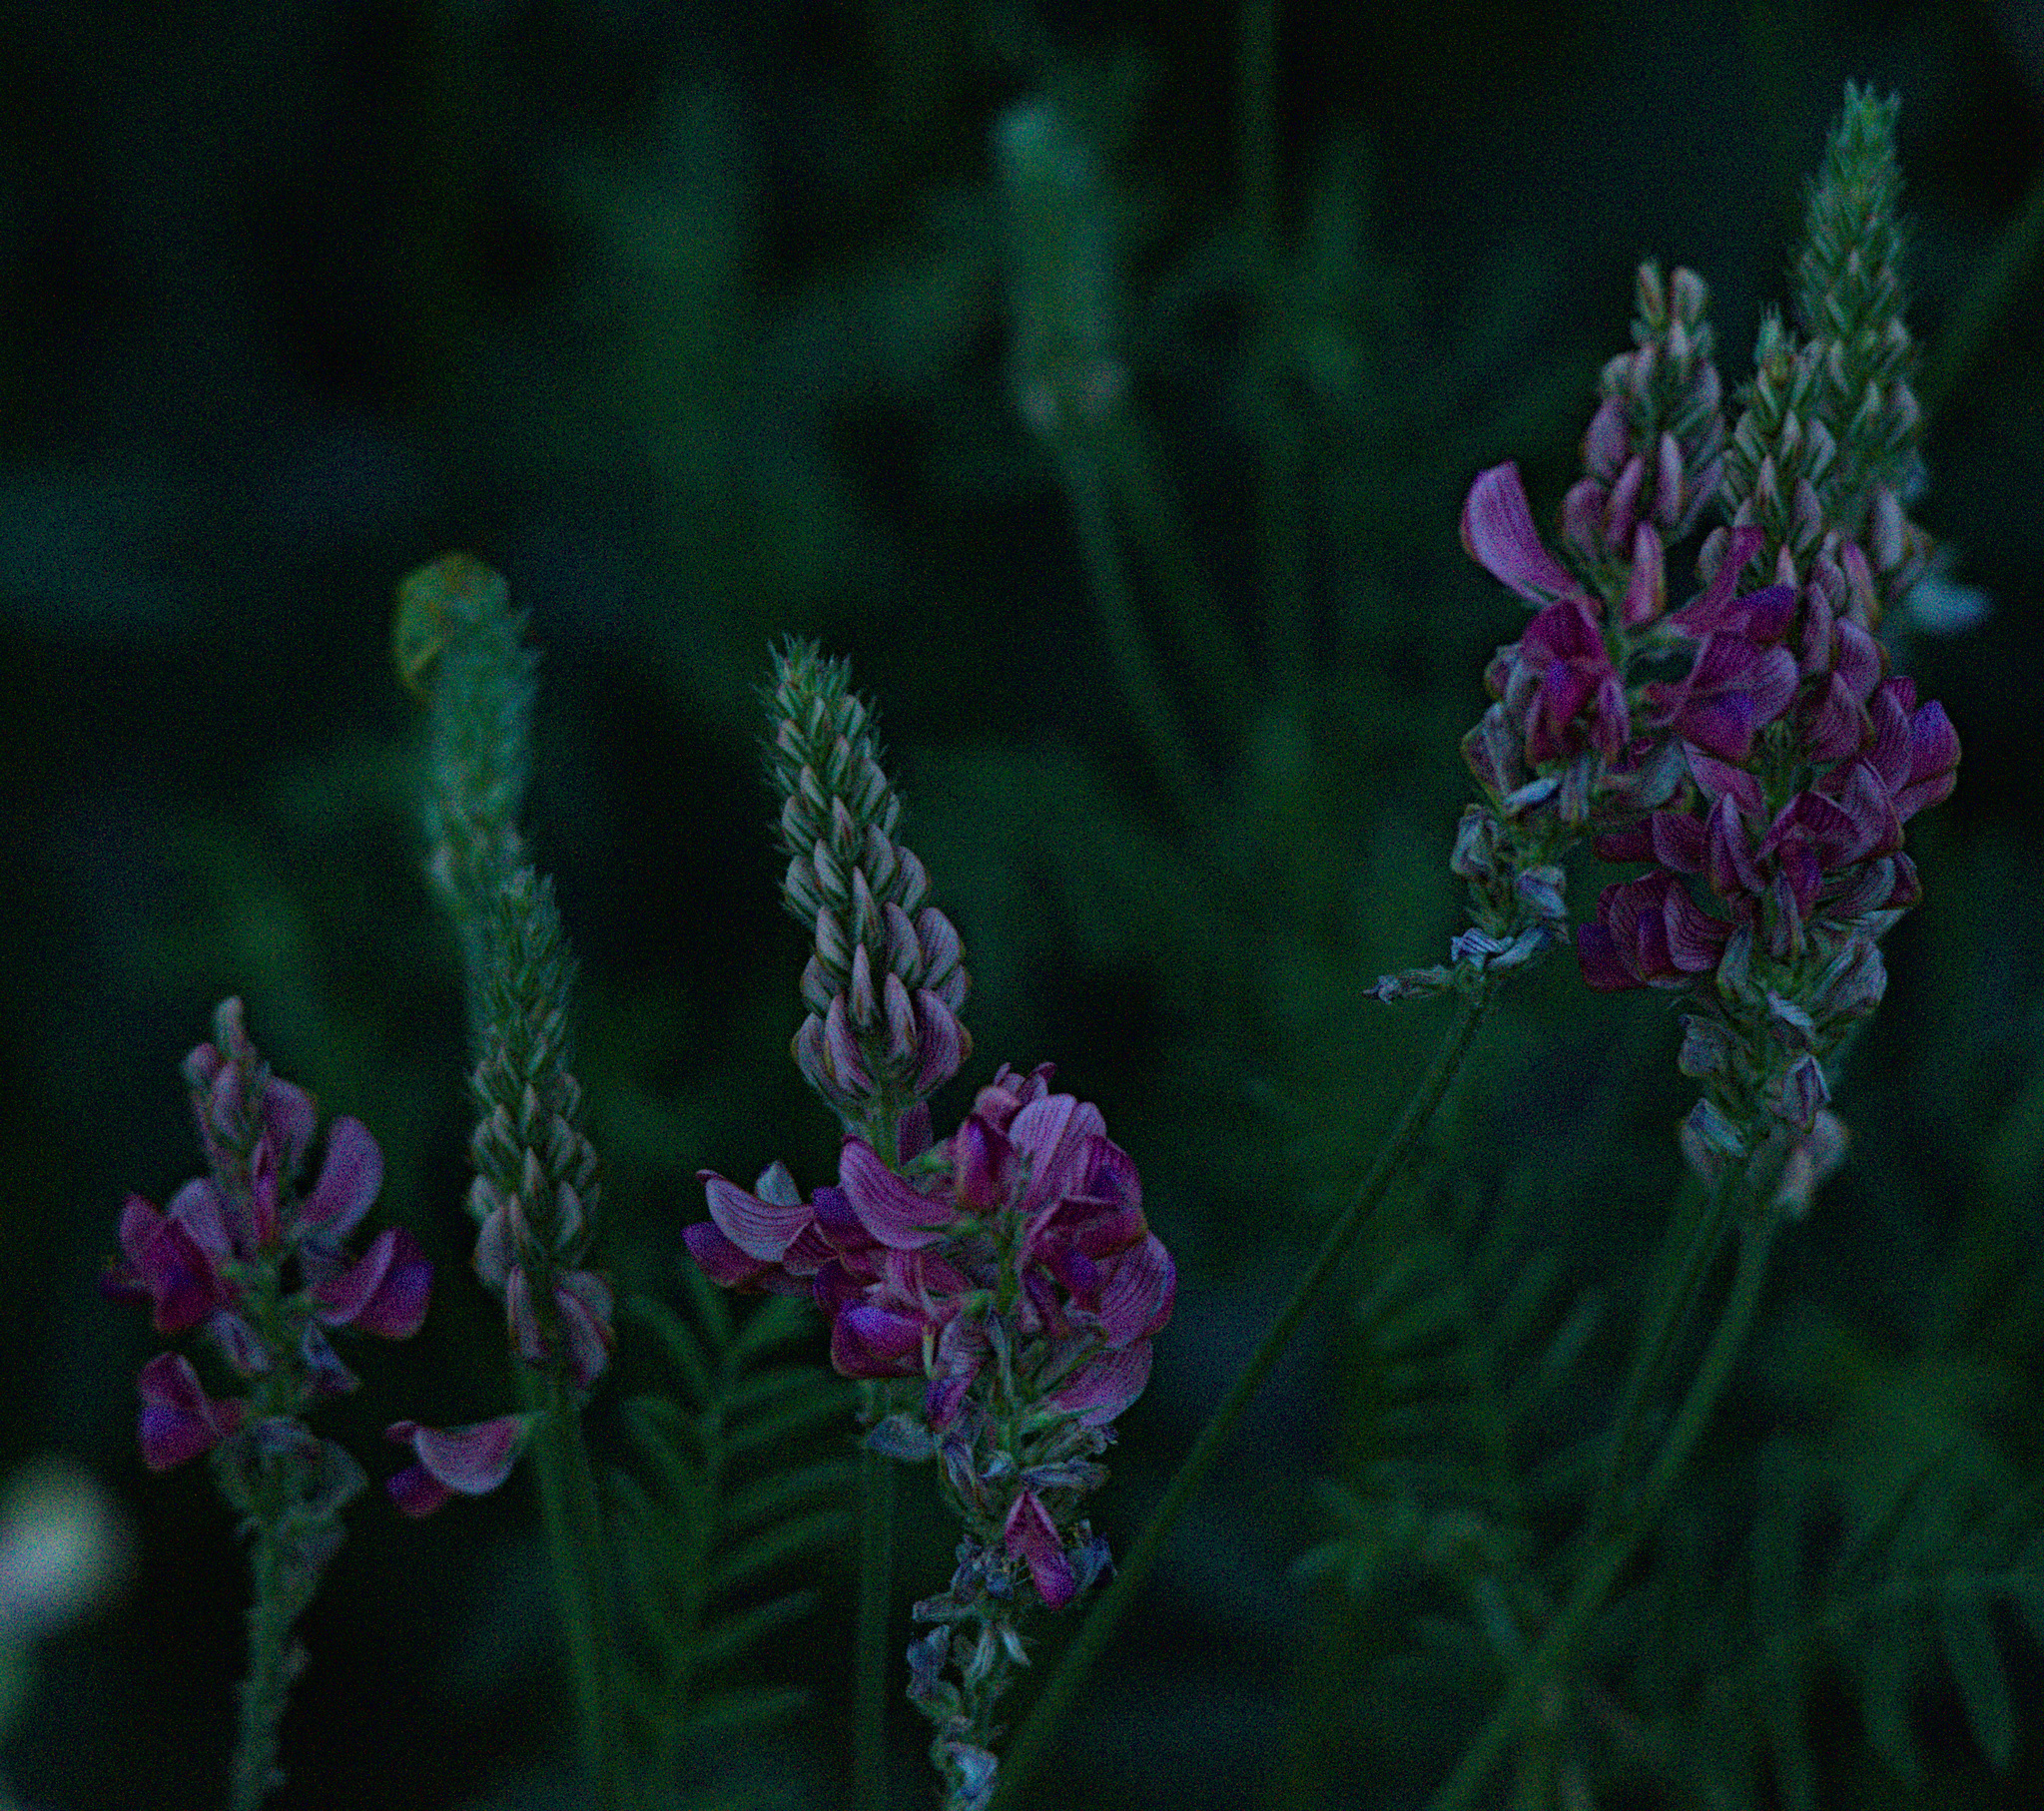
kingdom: Plantae
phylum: Tracheophyta
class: Magnoliopsida
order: Fabales
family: Fabaceae
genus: Onobrychis
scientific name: Onobrychis arenaria
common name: Sand esparcet
